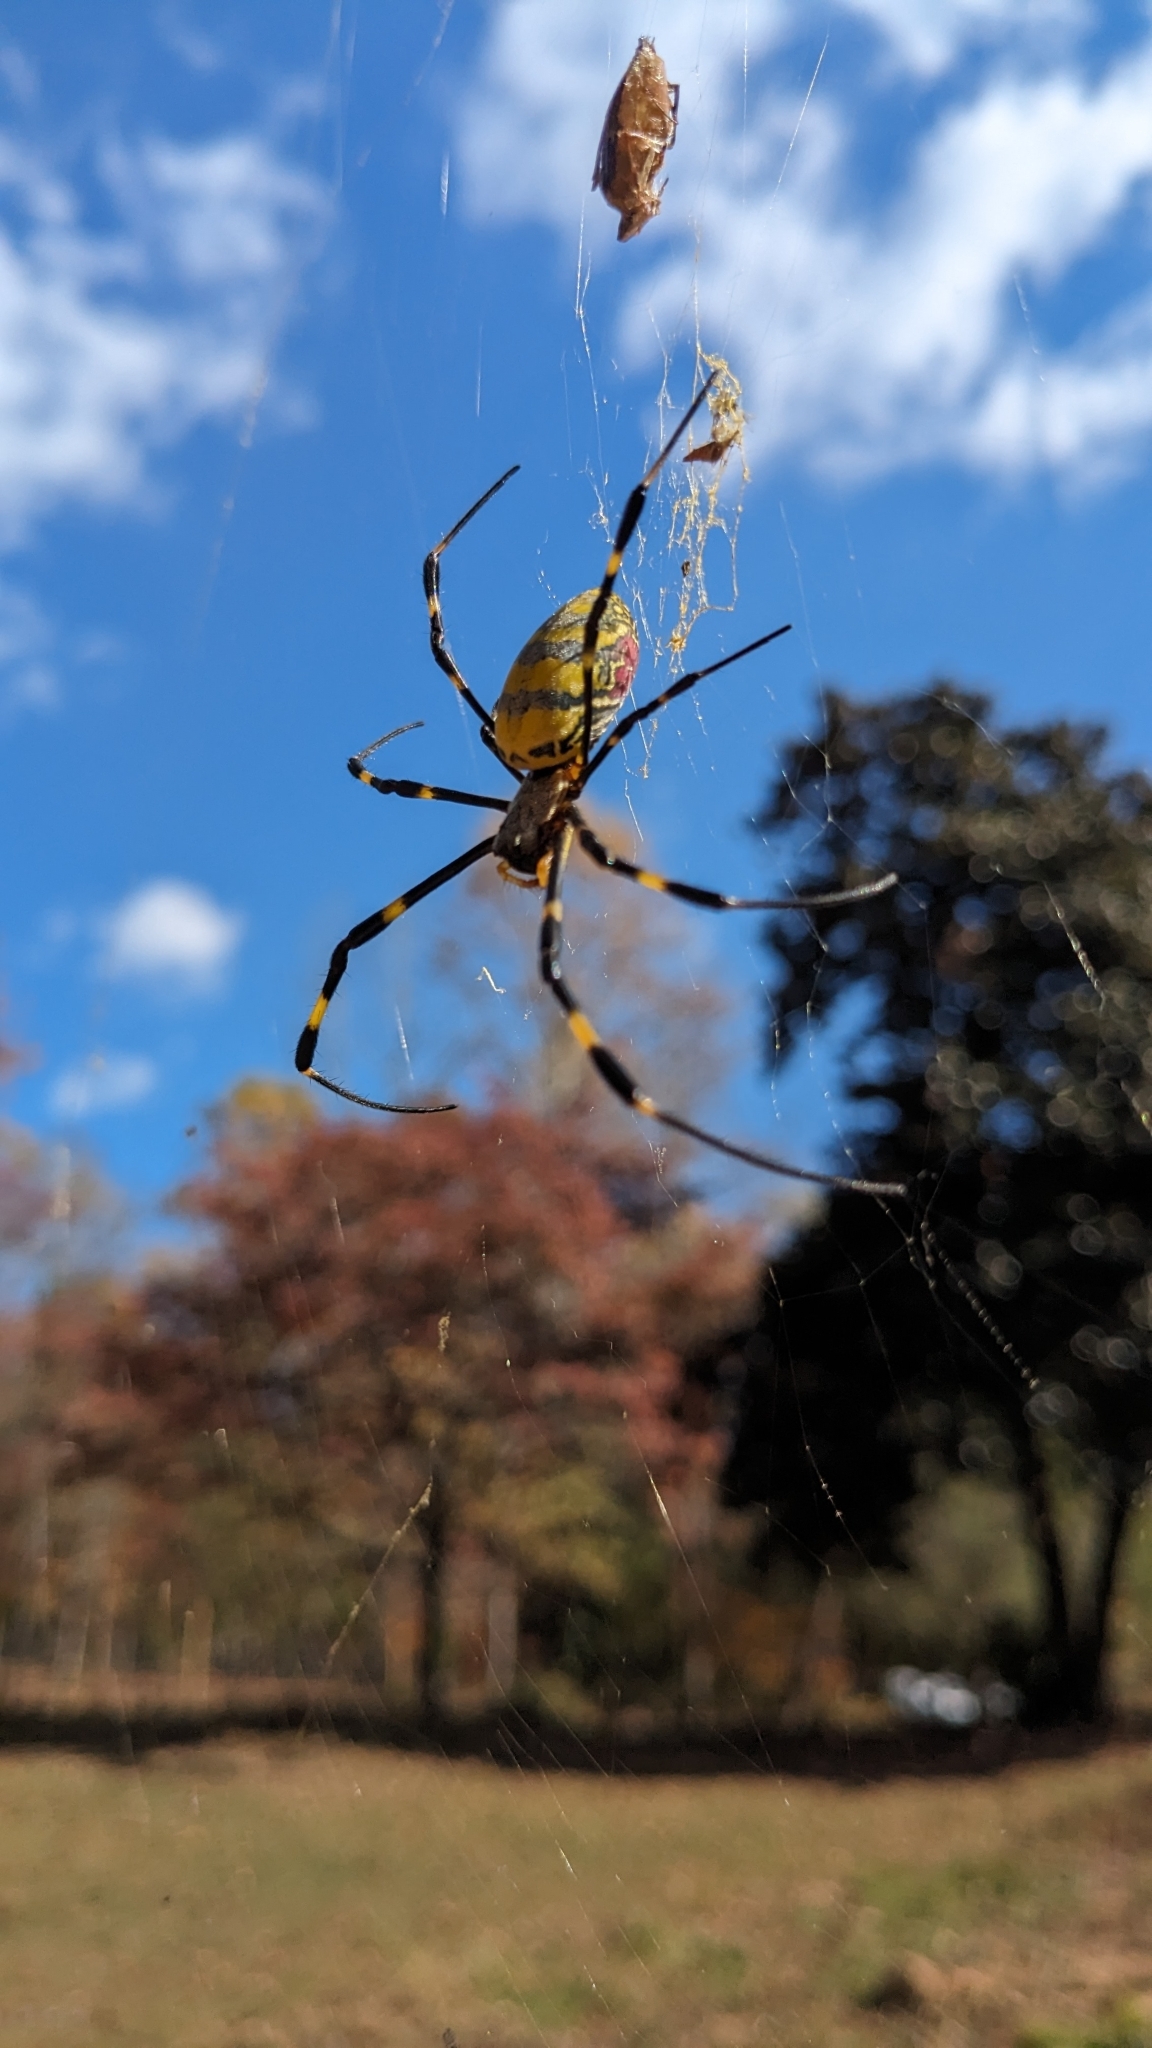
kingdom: Animalia
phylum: Arthropoda
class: Arachnida
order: Araneae
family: Araneidae
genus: Trichonephila
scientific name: Trichonephila clavata
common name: Jorō spider
